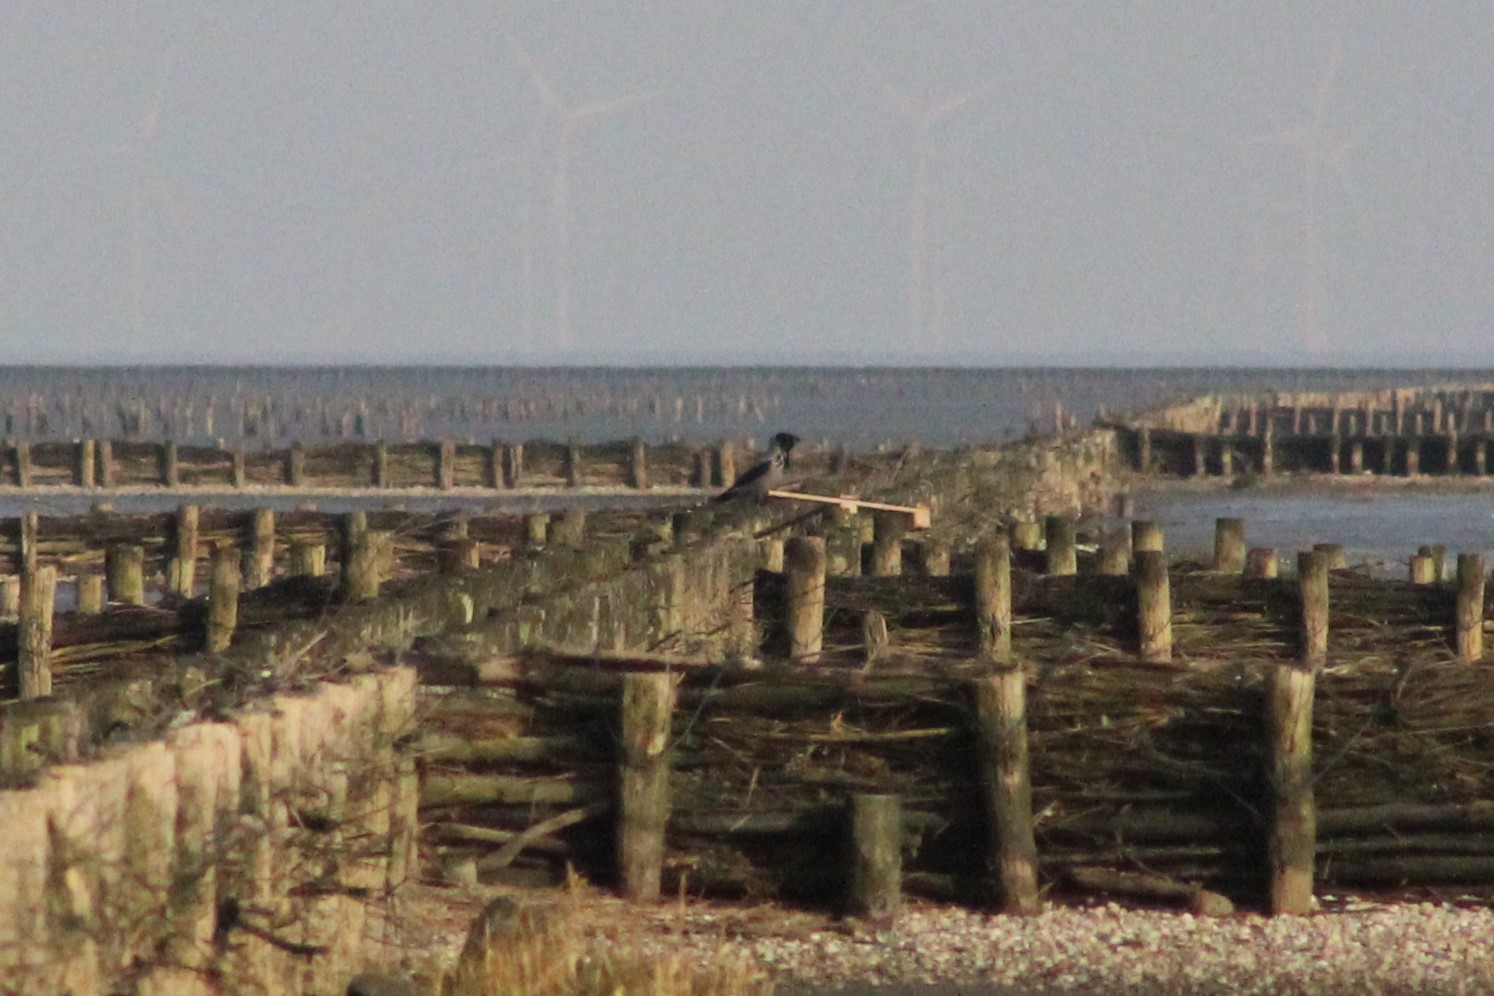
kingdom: Animalia
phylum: Chordata
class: Aves
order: Passeriformes
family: Corvidae
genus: Corvus
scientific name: Corvus cornix
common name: Hooded crow
